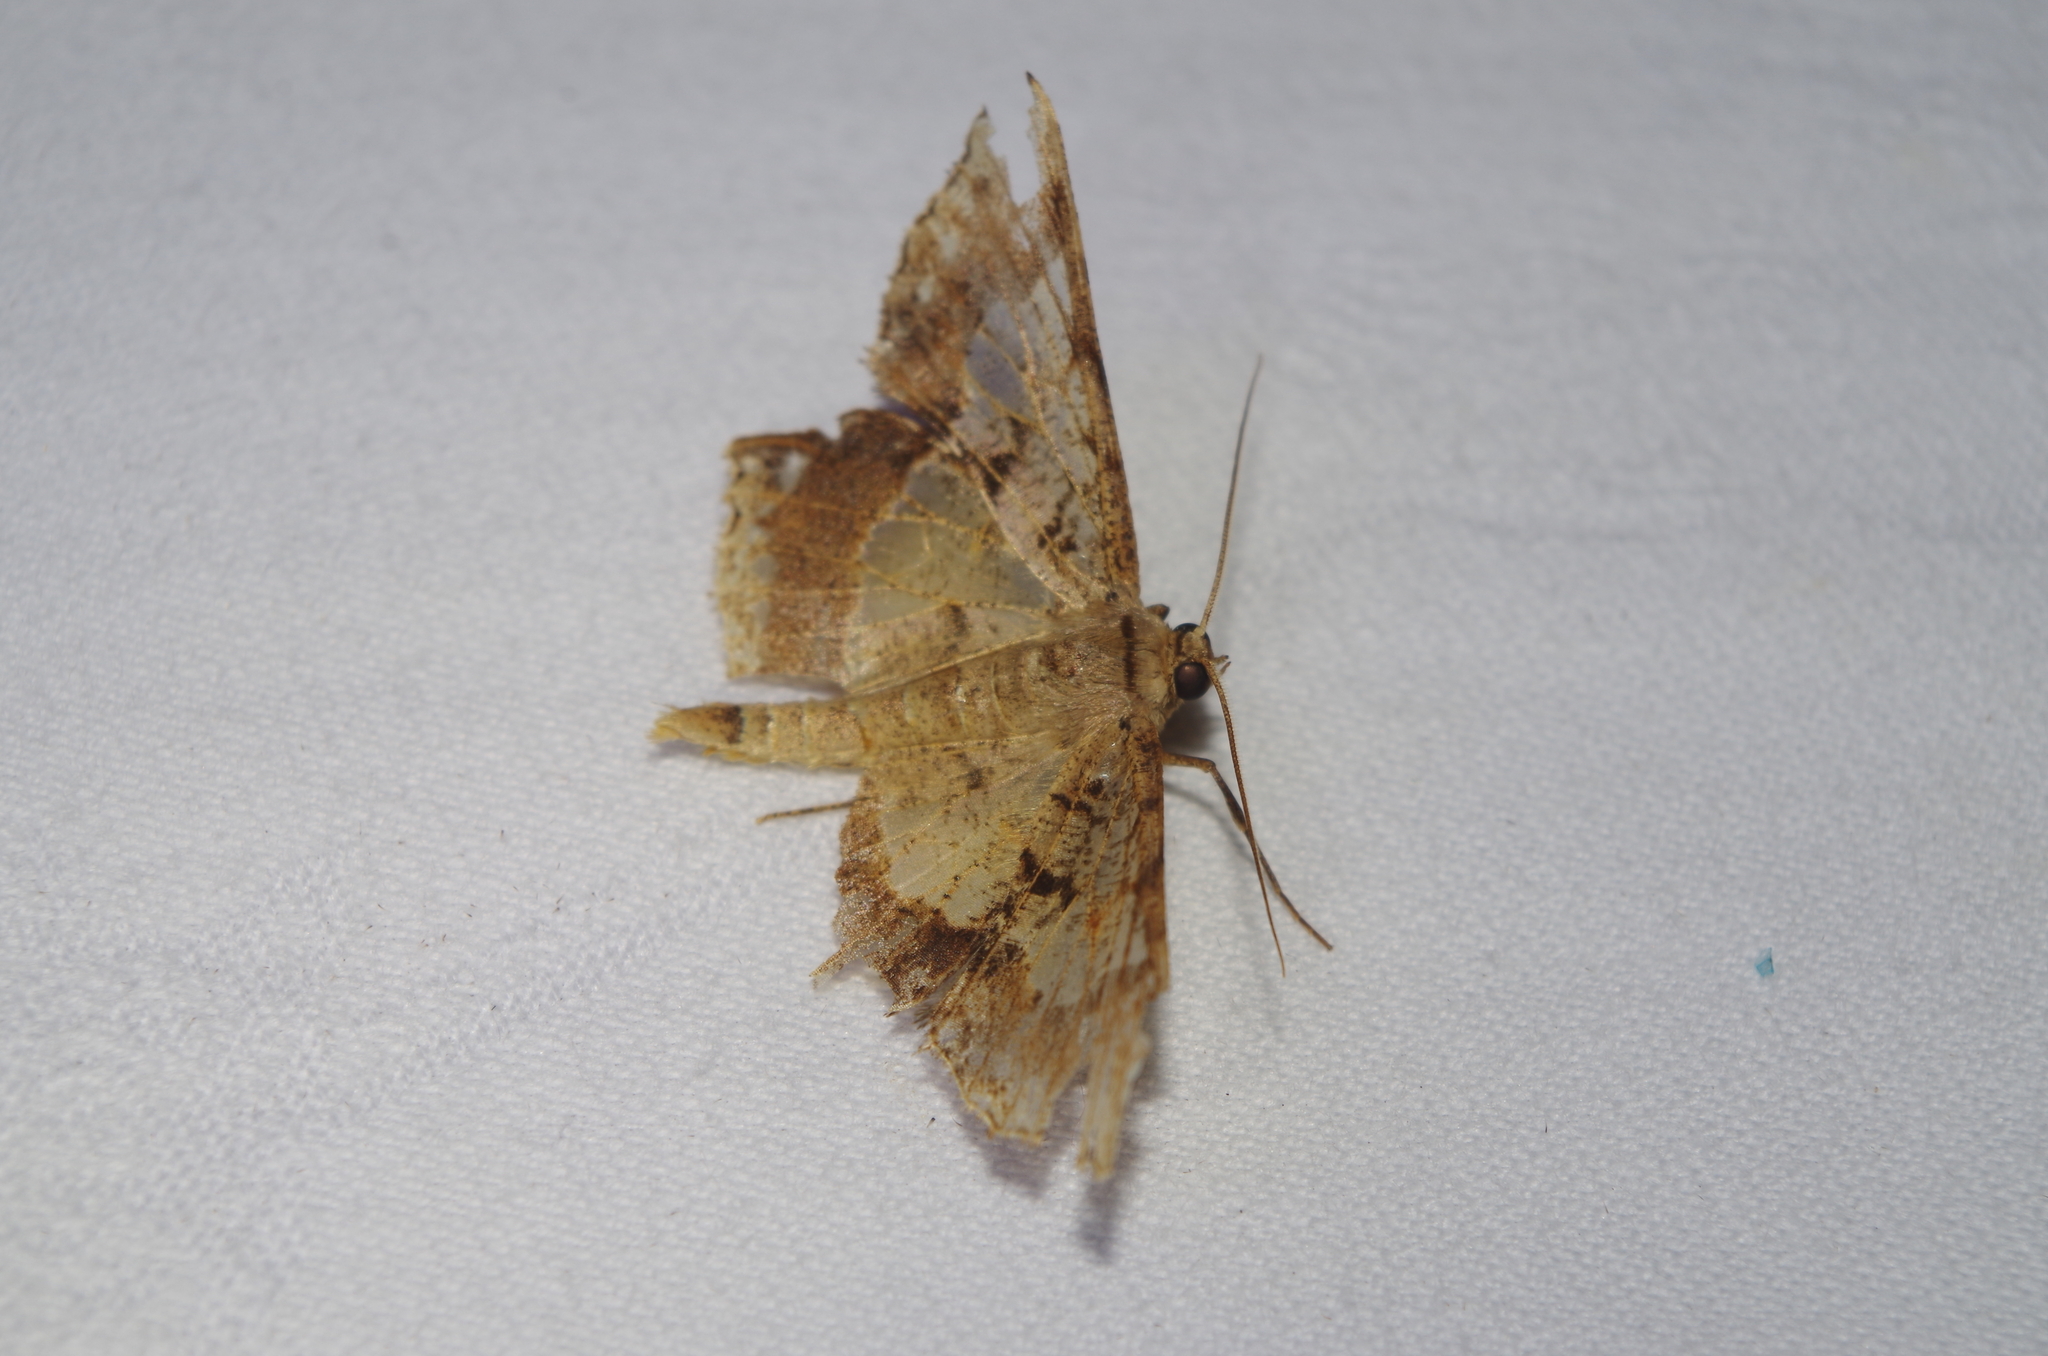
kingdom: Animalia
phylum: Arthropoda
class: Insecta
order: Lepidoptera
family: Geometridae
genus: Krananda
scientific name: Krananda semihyalina
